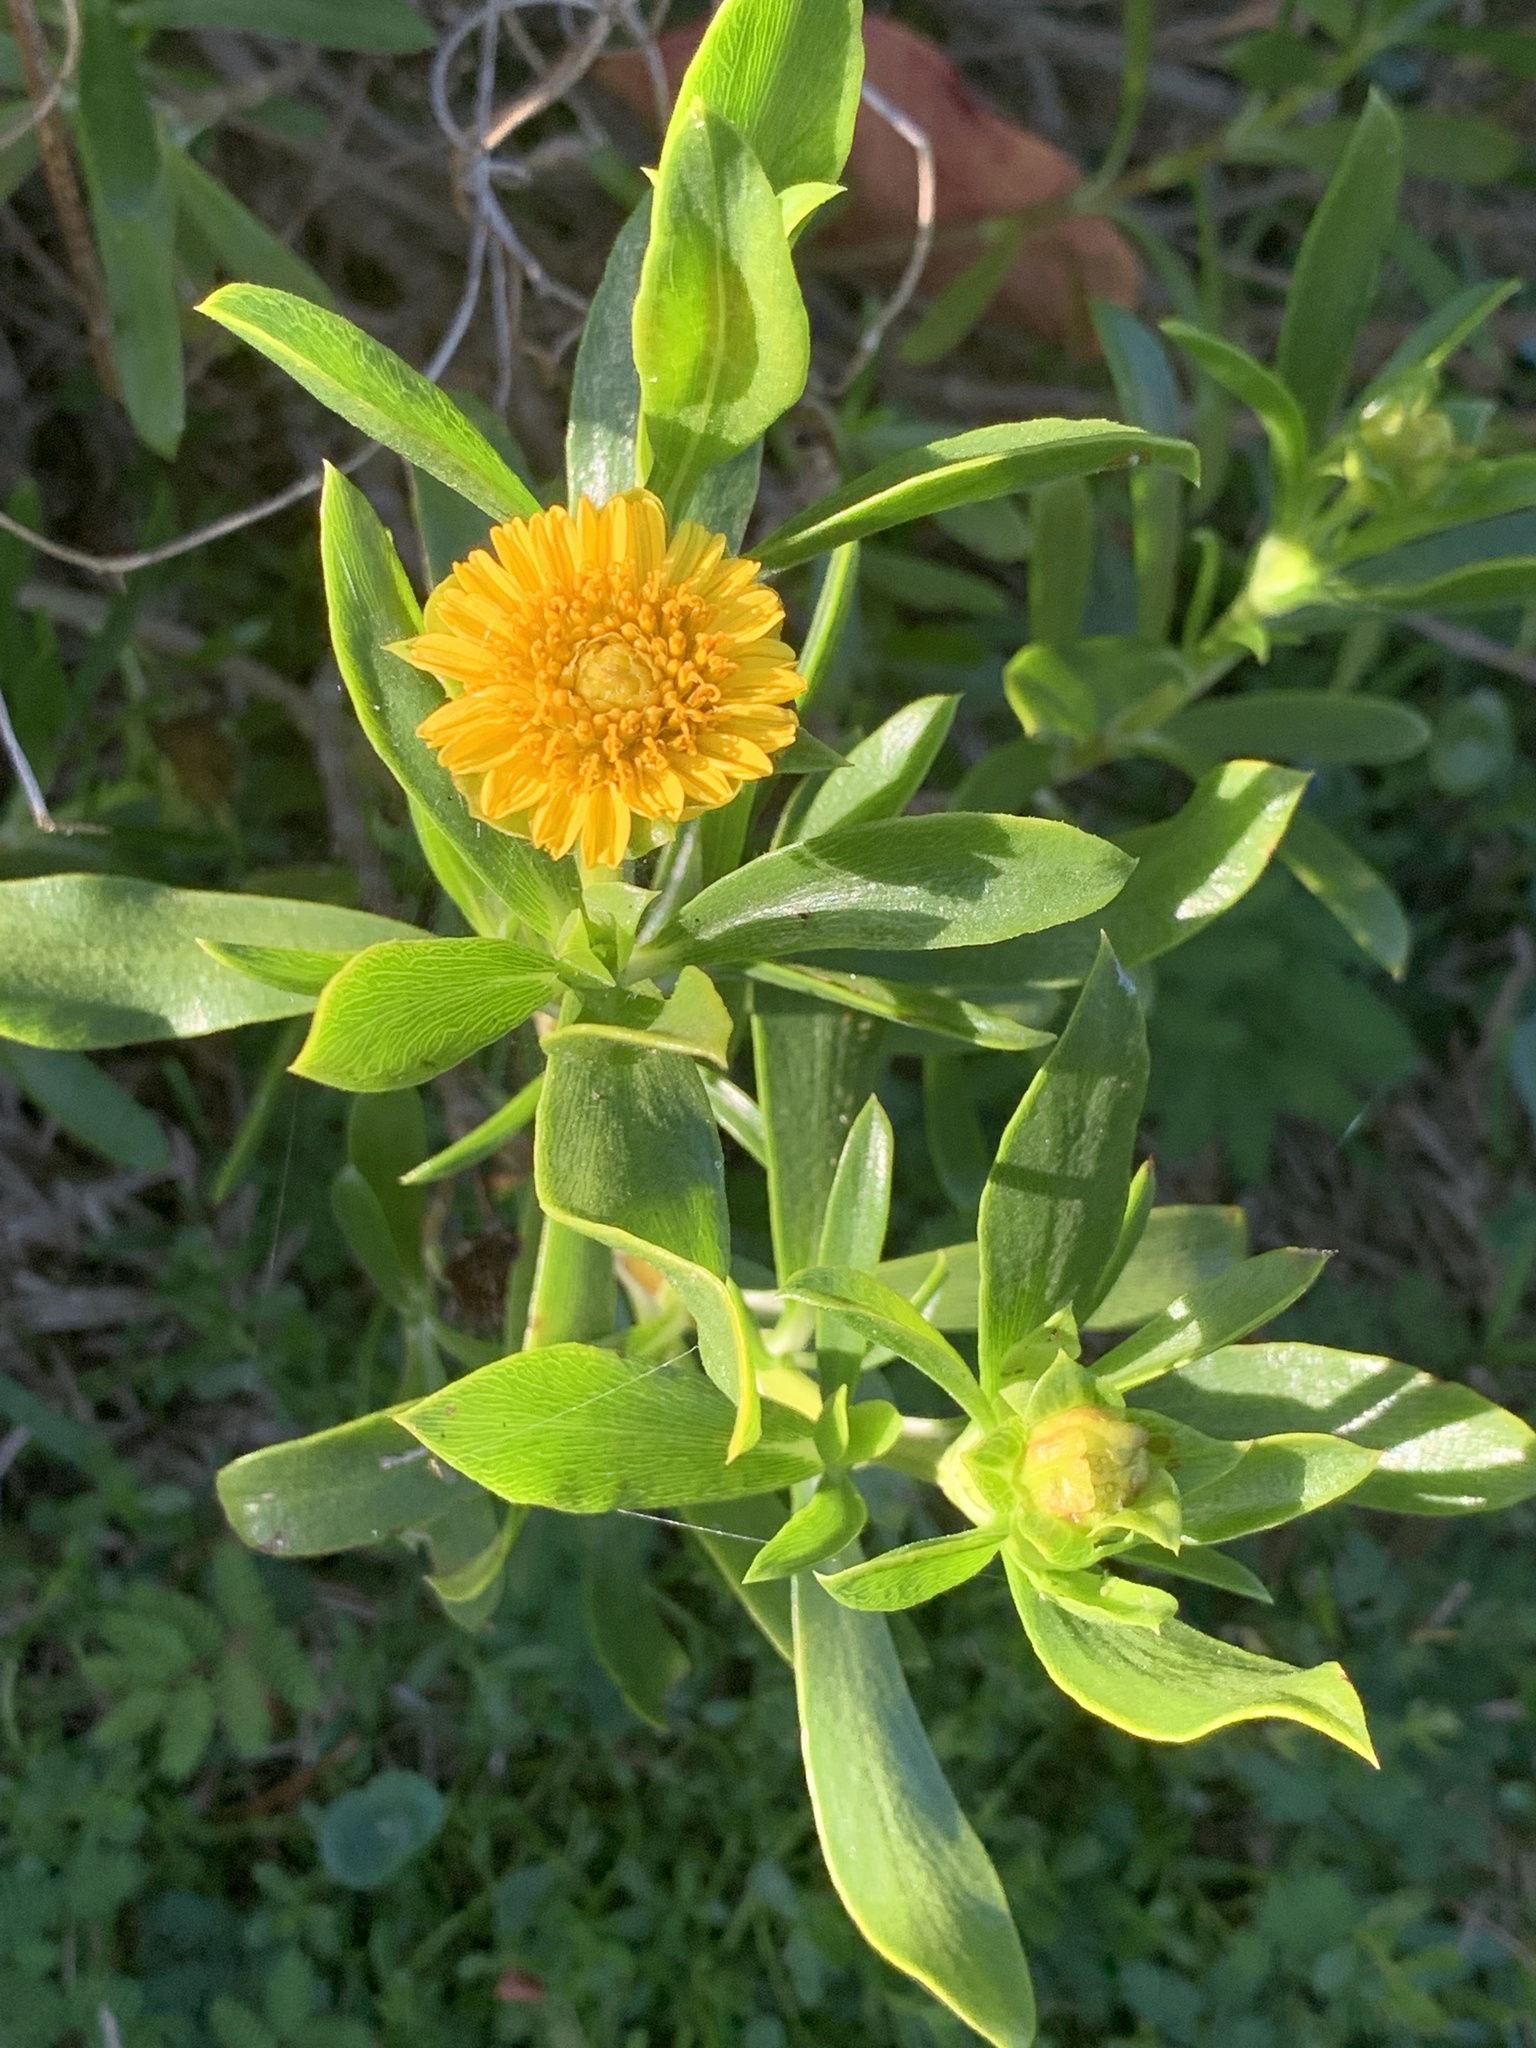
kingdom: Plantae
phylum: Tracheophyta
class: Magnoliopsida
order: Asterales
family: Asteraceae
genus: Borrichia
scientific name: Borrichia frutescens
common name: Sea oxeye
